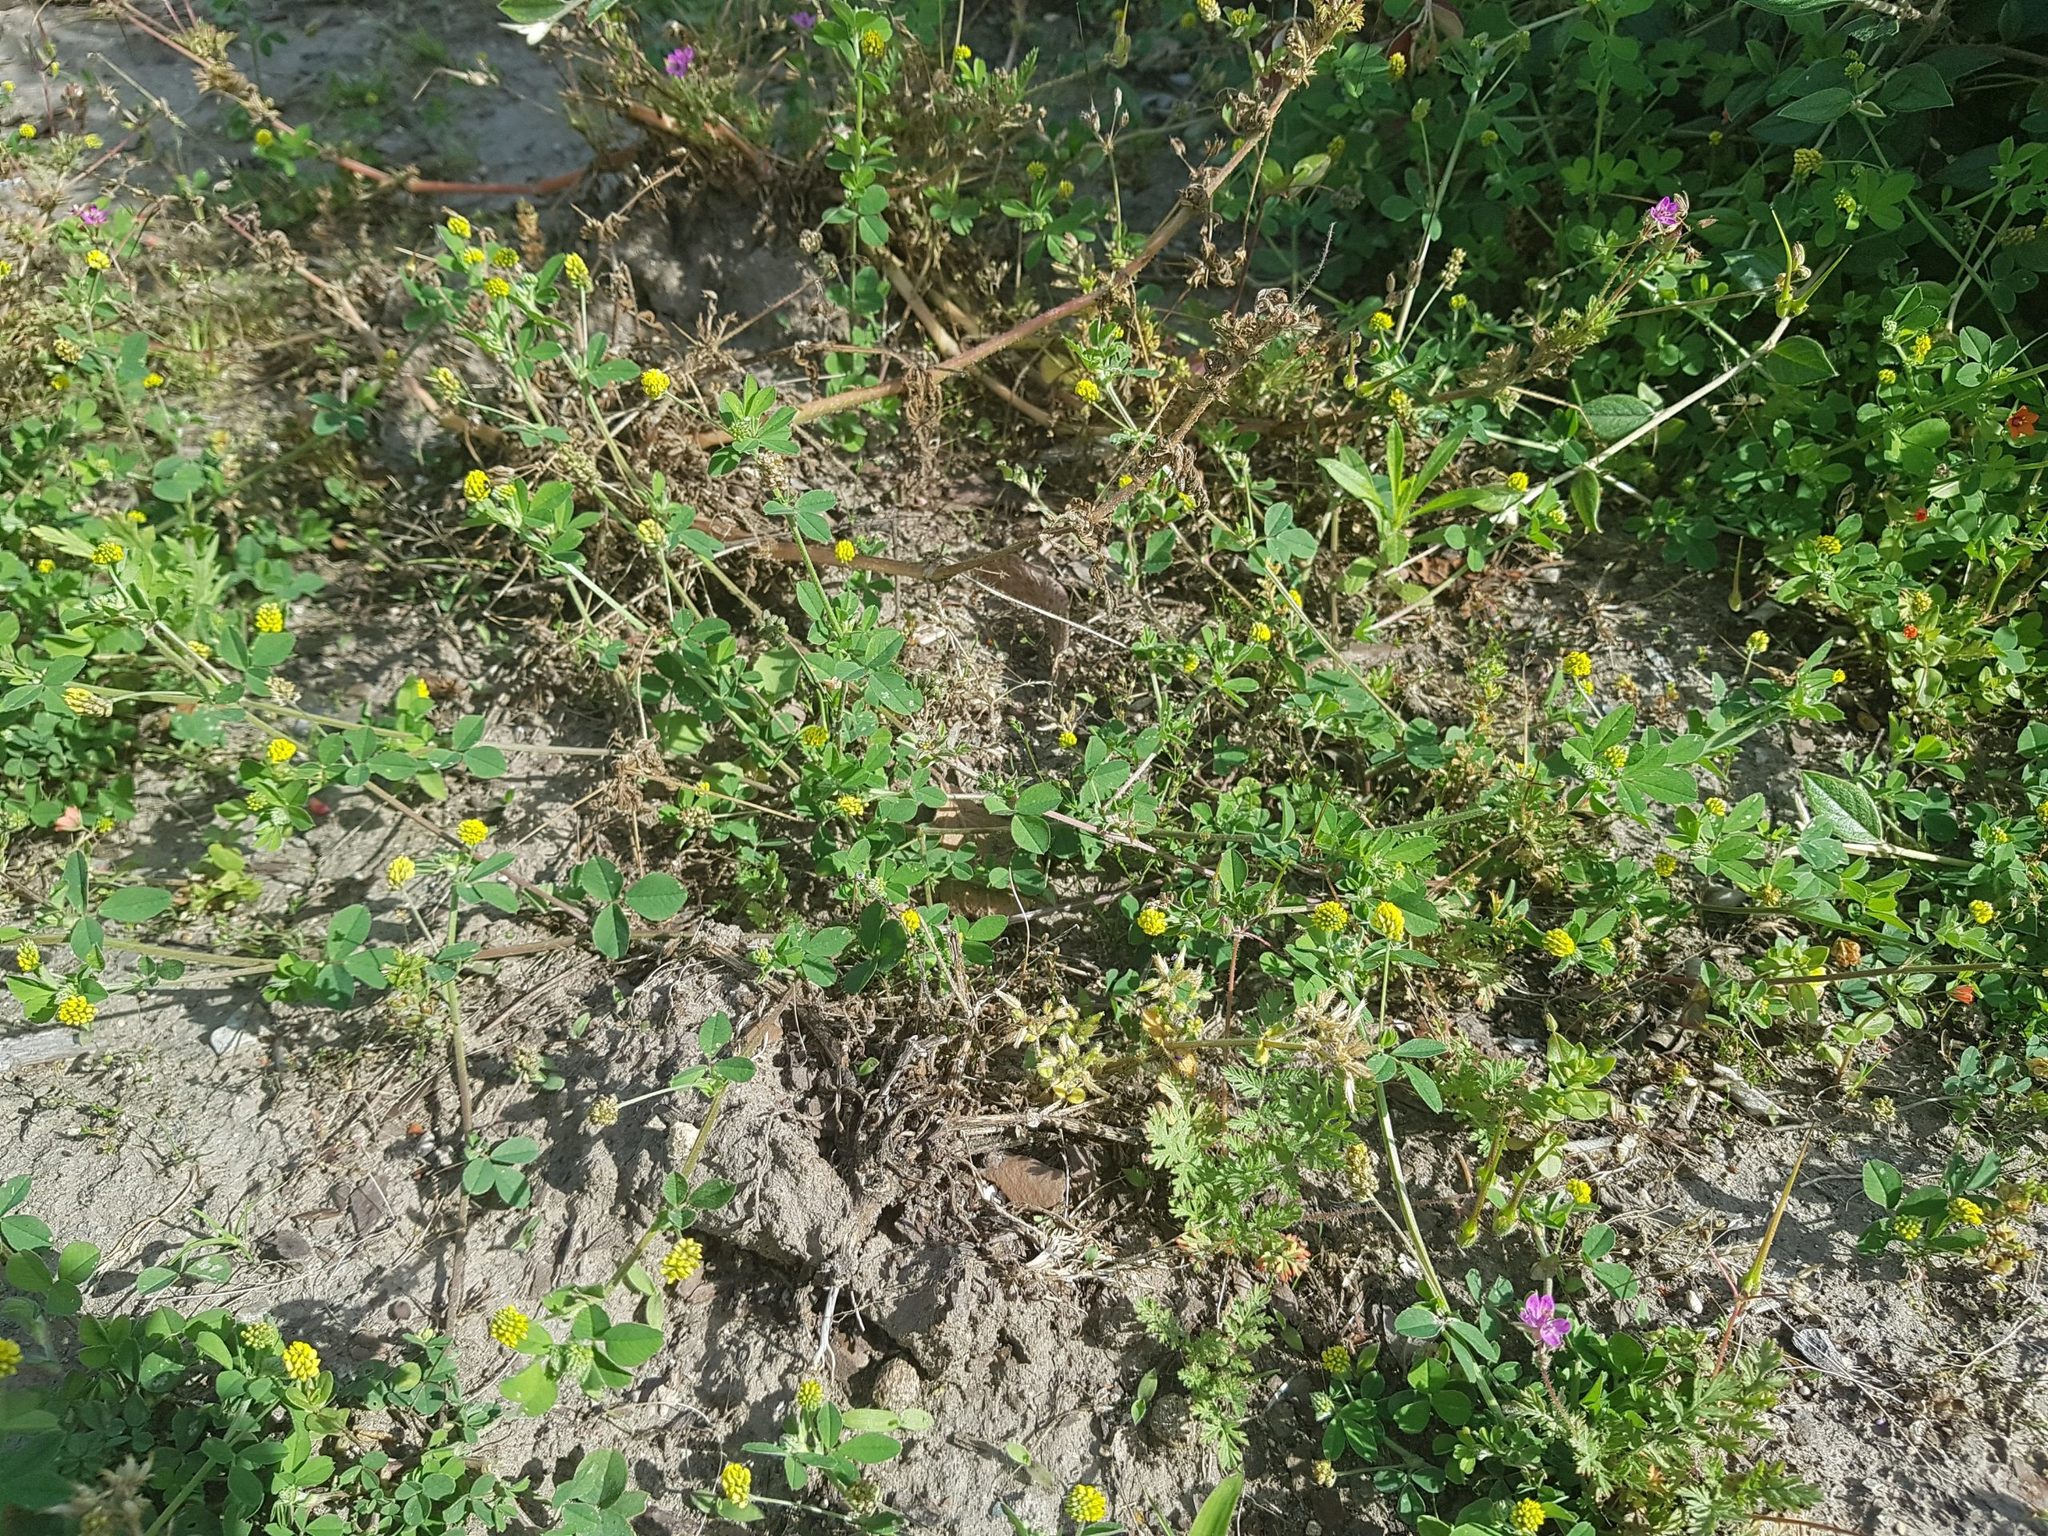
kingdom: Plantae
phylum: Tracheophyta
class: Magnoliopsida
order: Fabales
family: Fabaceae
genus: Medicago
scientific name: Medicago lupulina
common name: Black medick
